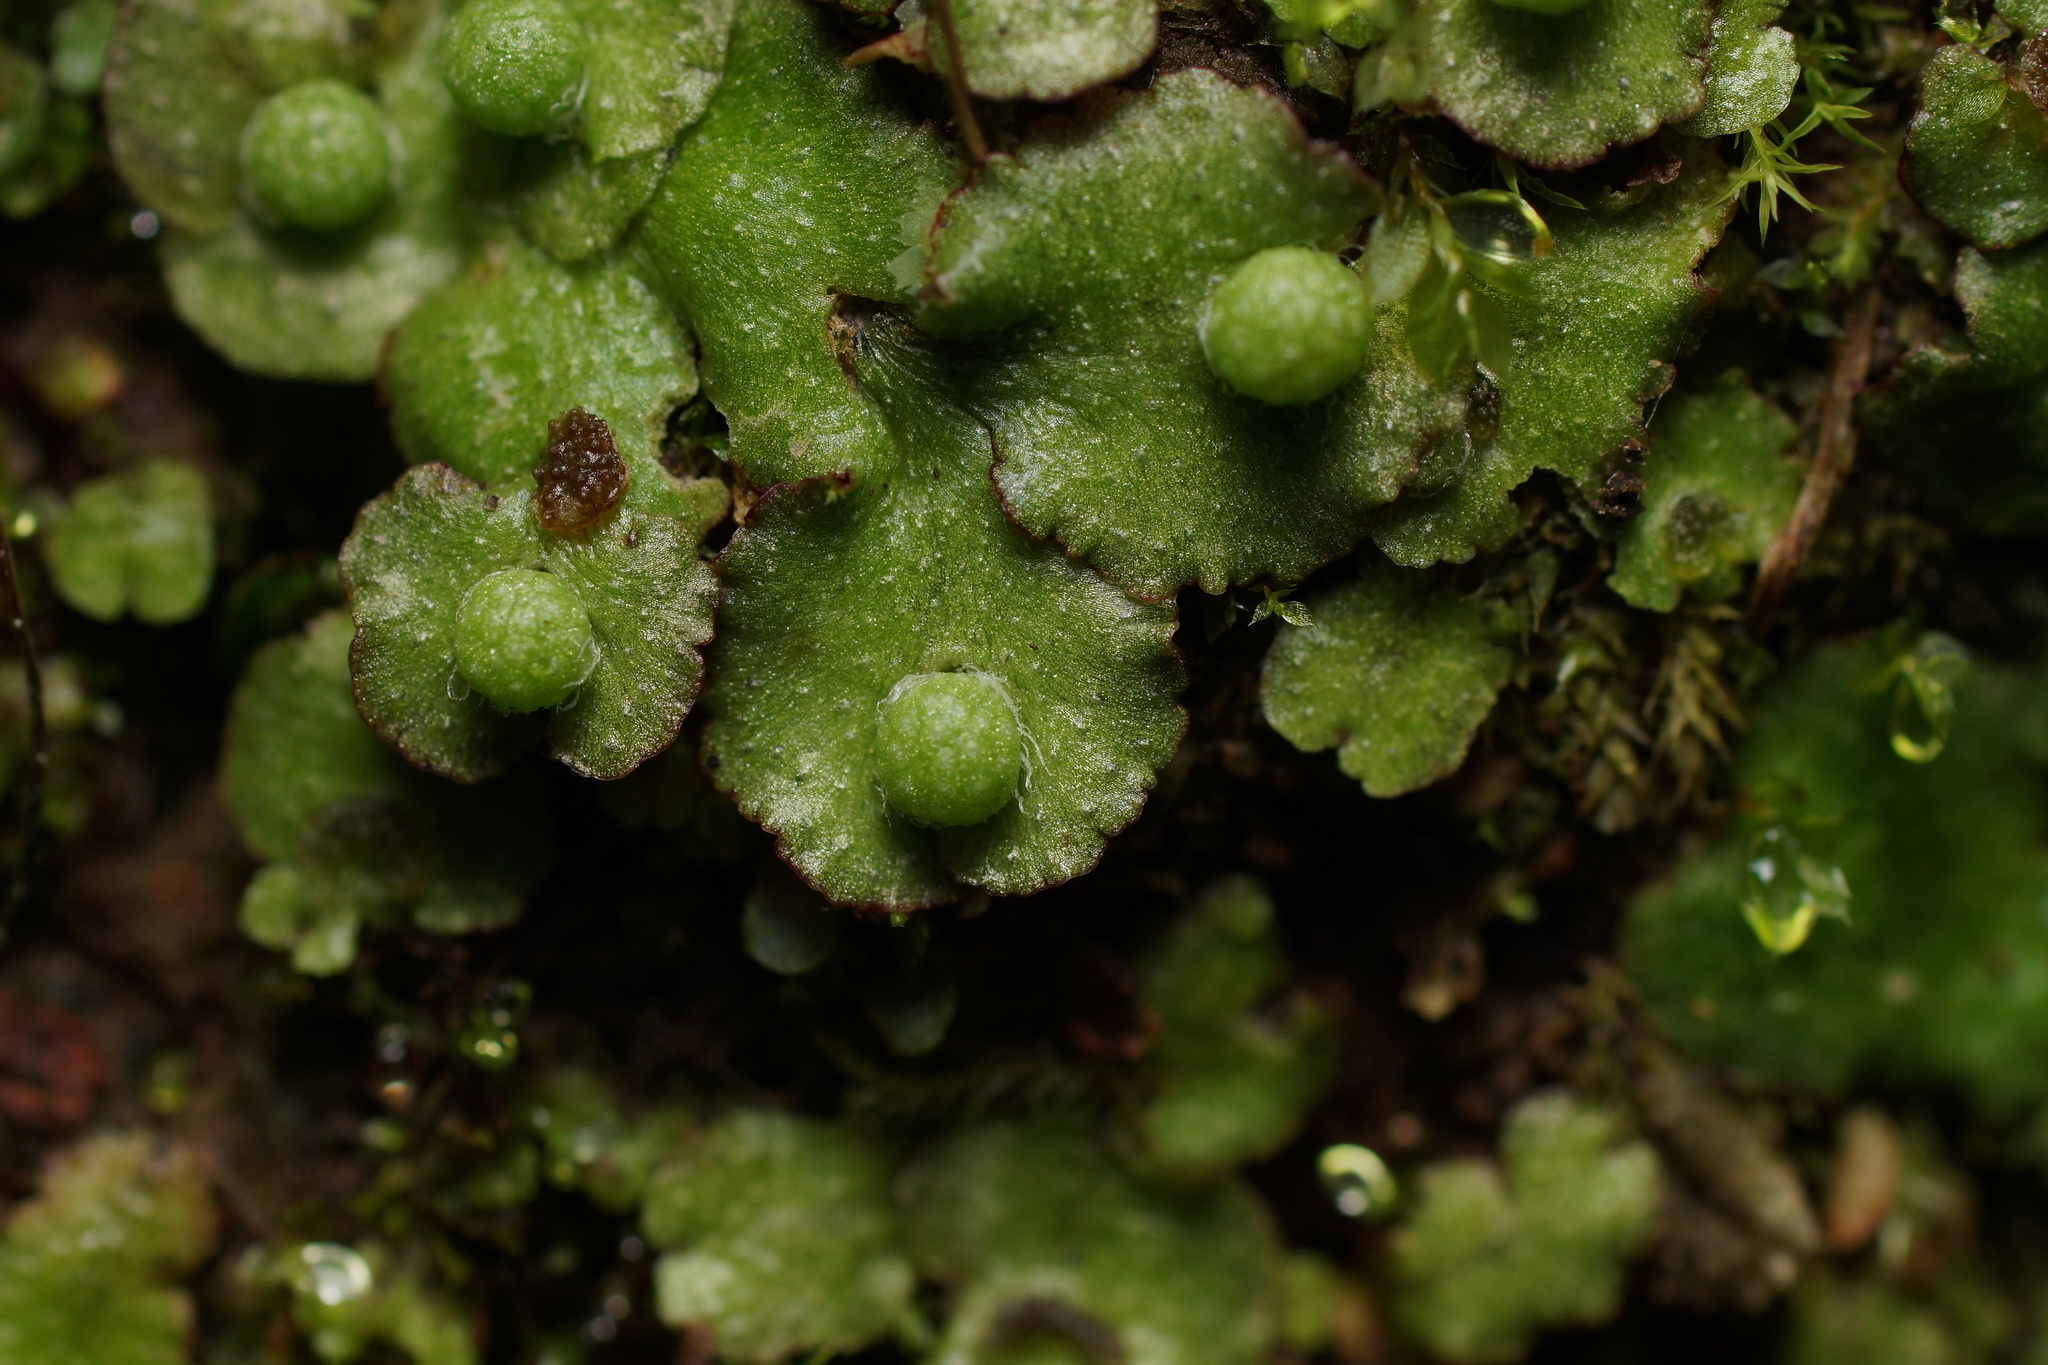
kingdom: Plantae
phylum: Marchantiophyta
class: Marchantiopsida
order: Marchantiales
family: Aytoniaceae
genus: Reboulia
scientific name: Reboulia hemisphaerica
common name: Purple-margined liverwort
